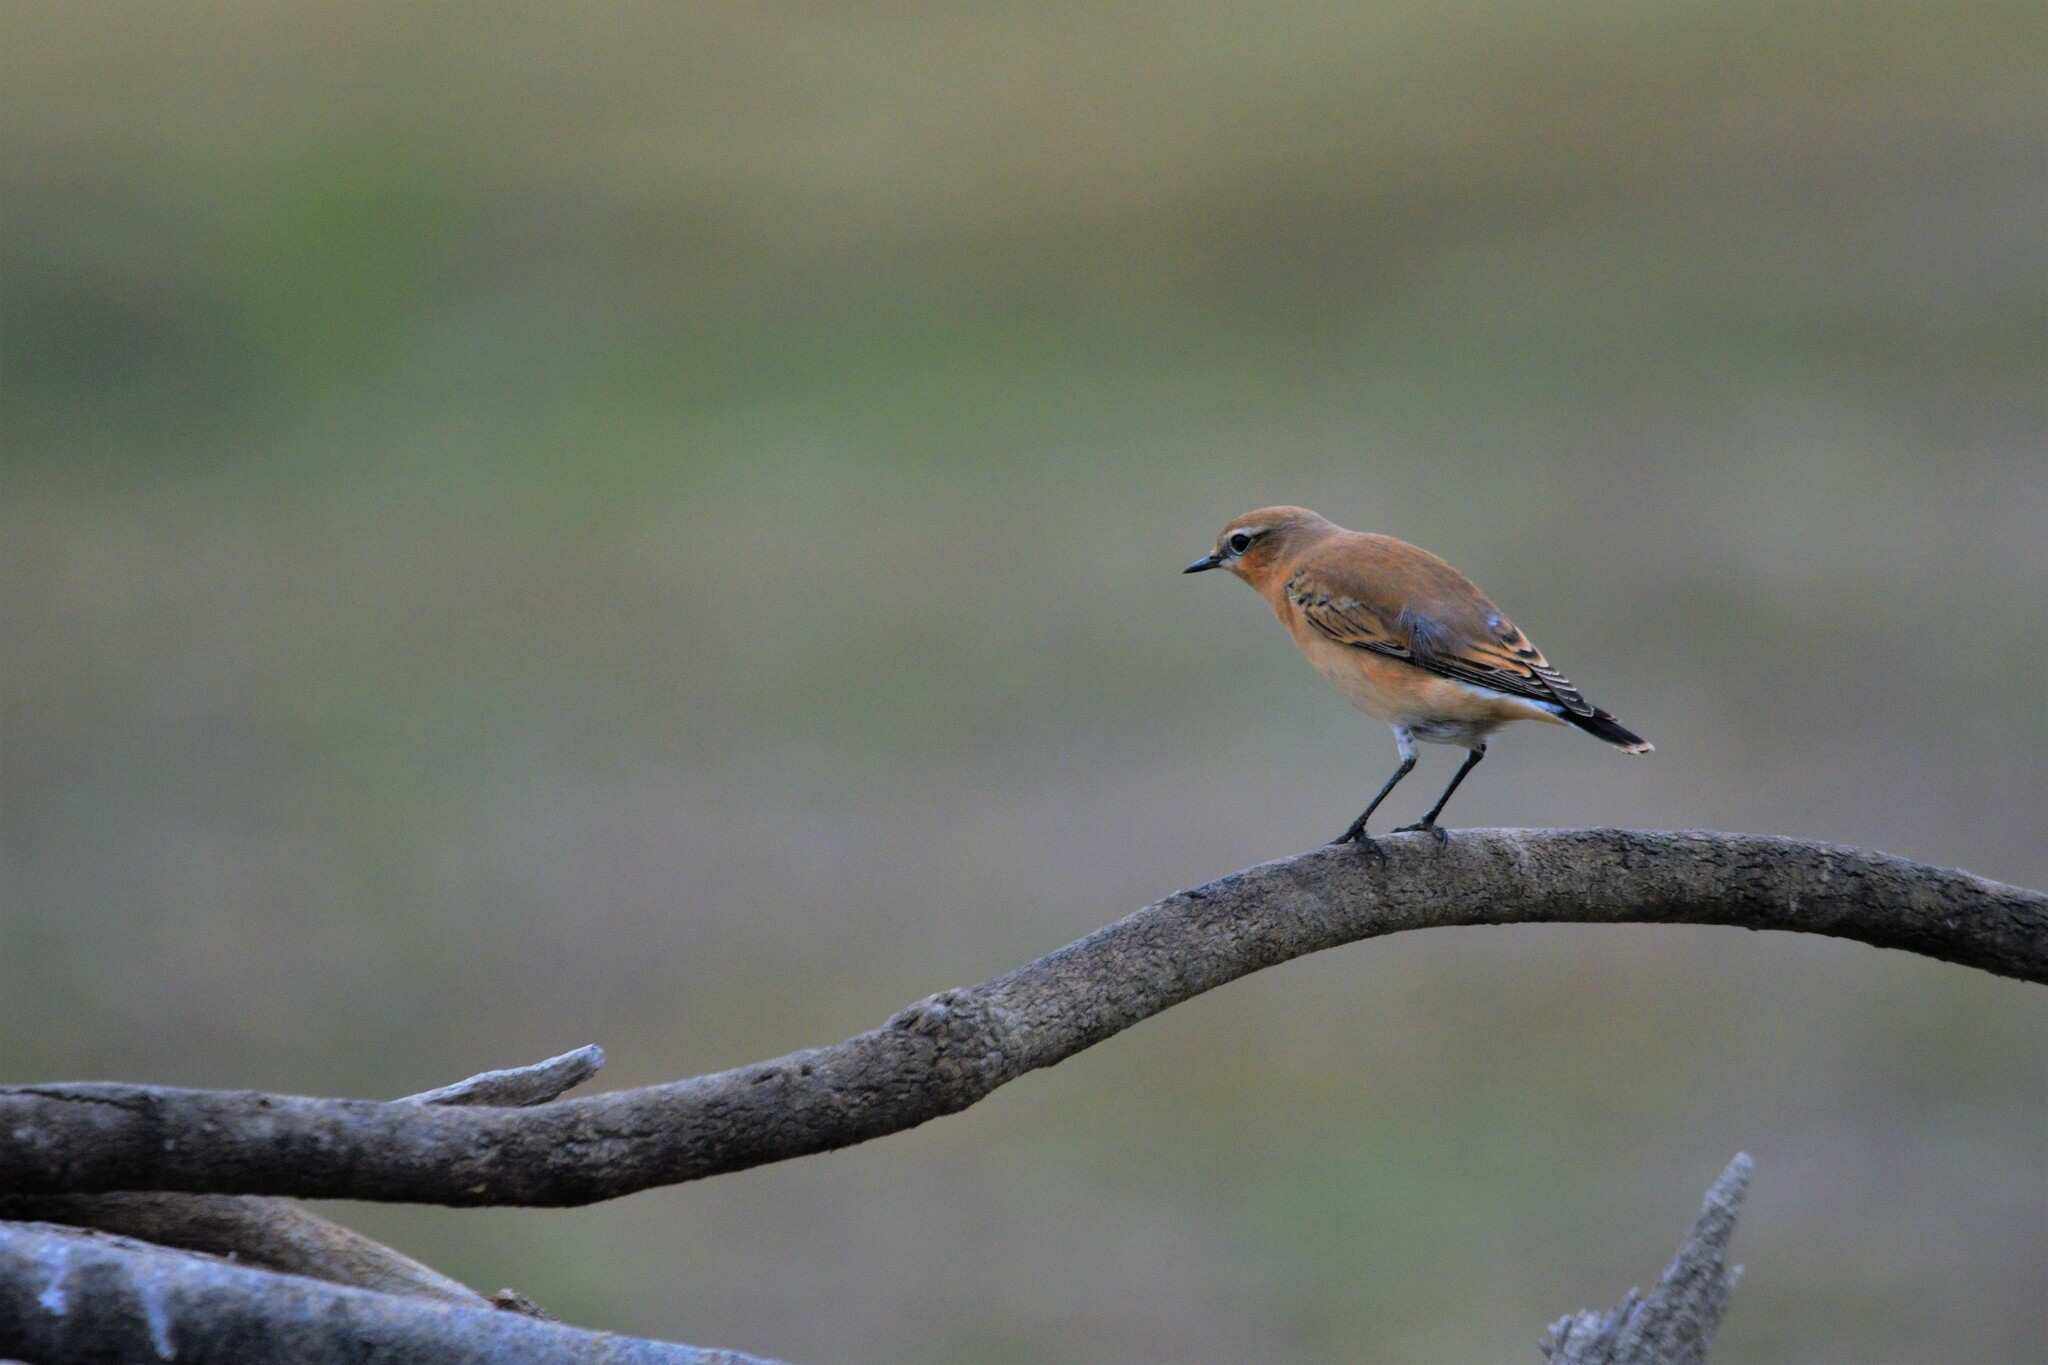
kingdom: Animalia
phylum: Chordata
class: Aves
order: Passeriformes
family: Muscicapidae
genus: Oenanthe
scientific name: Oenanthe oenanthe
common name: Northern wheatear
